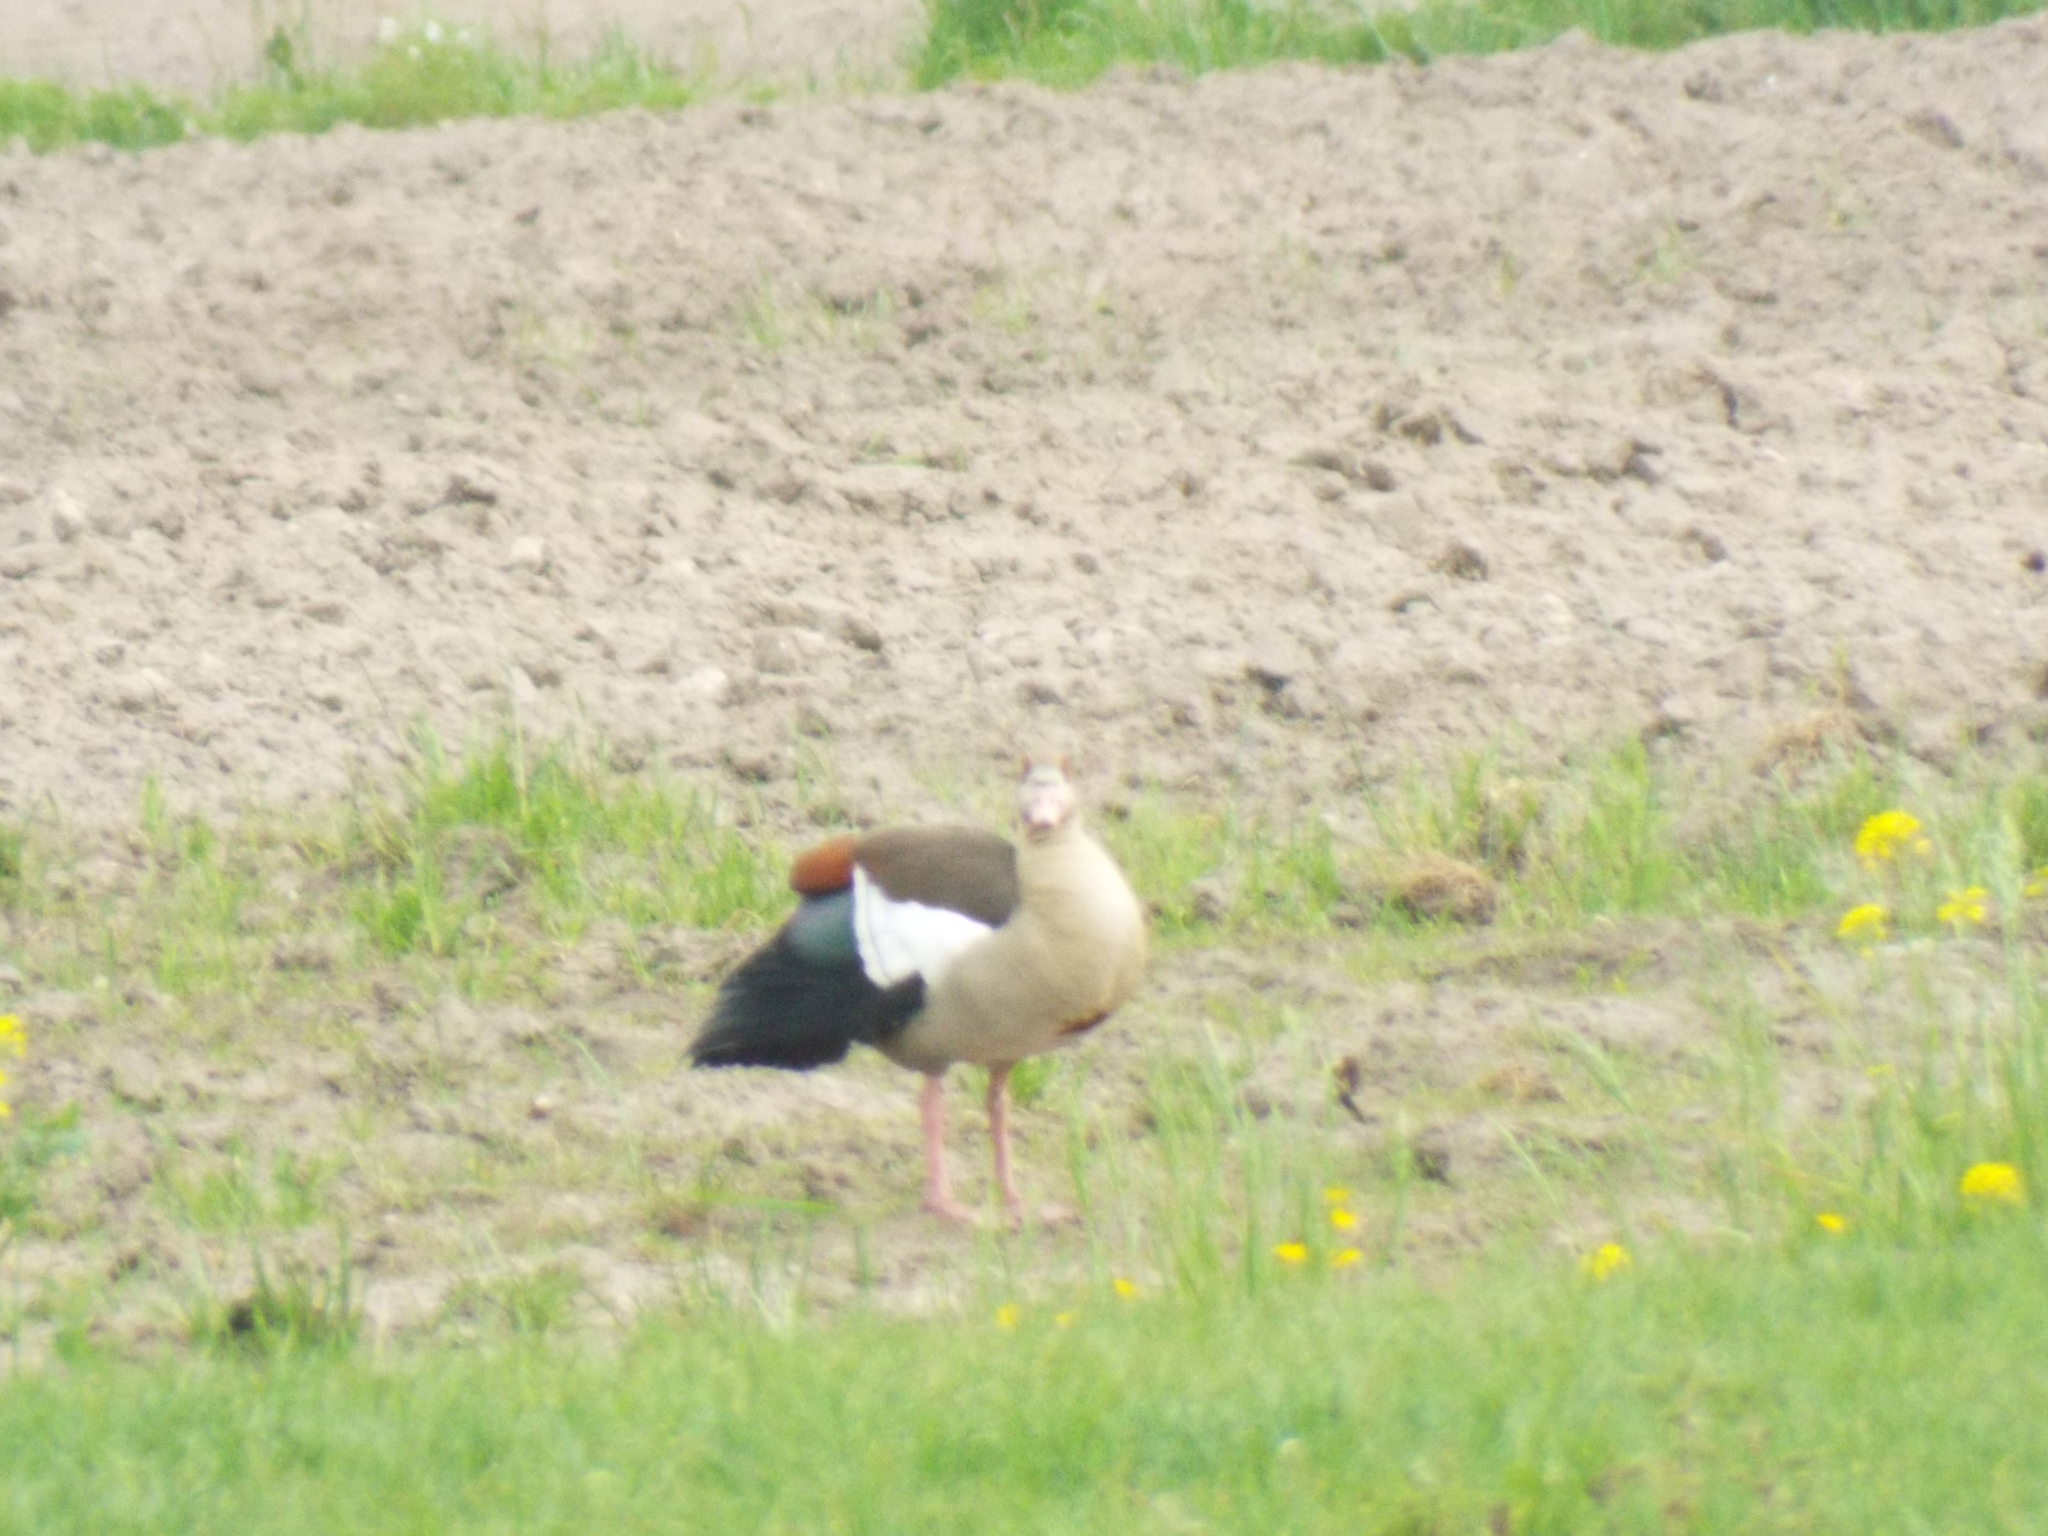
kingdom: Animalia
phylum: Chordata
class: Aves
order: Anseriformes
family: Anatidae
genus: Alopochen
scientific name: Alopochen aegyptiaca
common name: Egyptian goose
